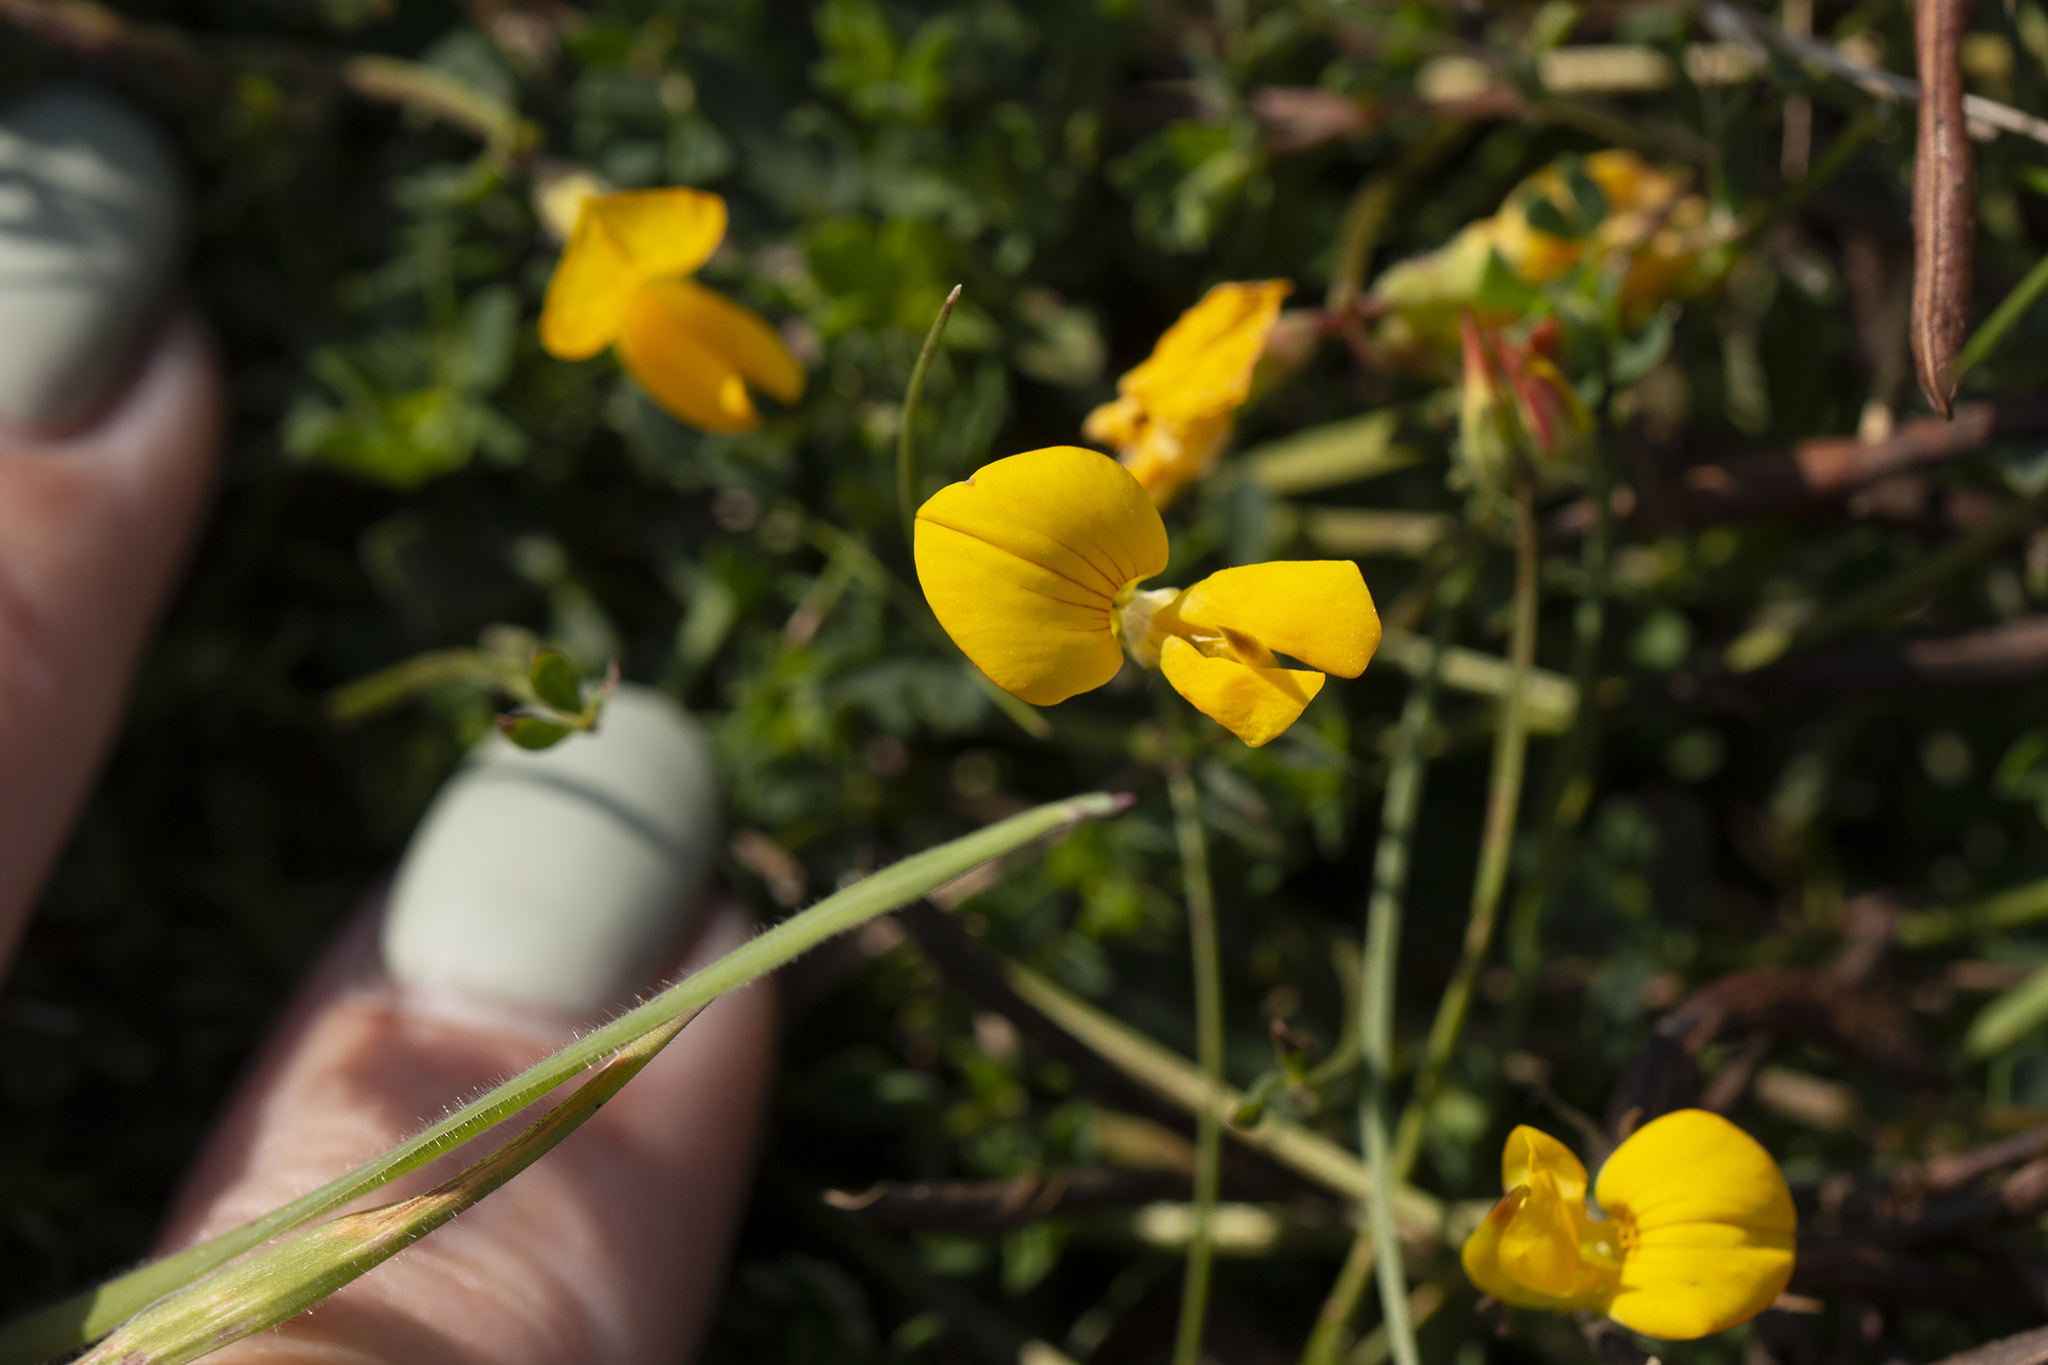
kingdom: Plantae
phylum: Tracheophyta
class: Magnoliopsida
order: Fabales
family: Fabaceae
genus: Lotus
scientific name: Lotus corniculatus
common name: Common bird's-foot-trefoil
